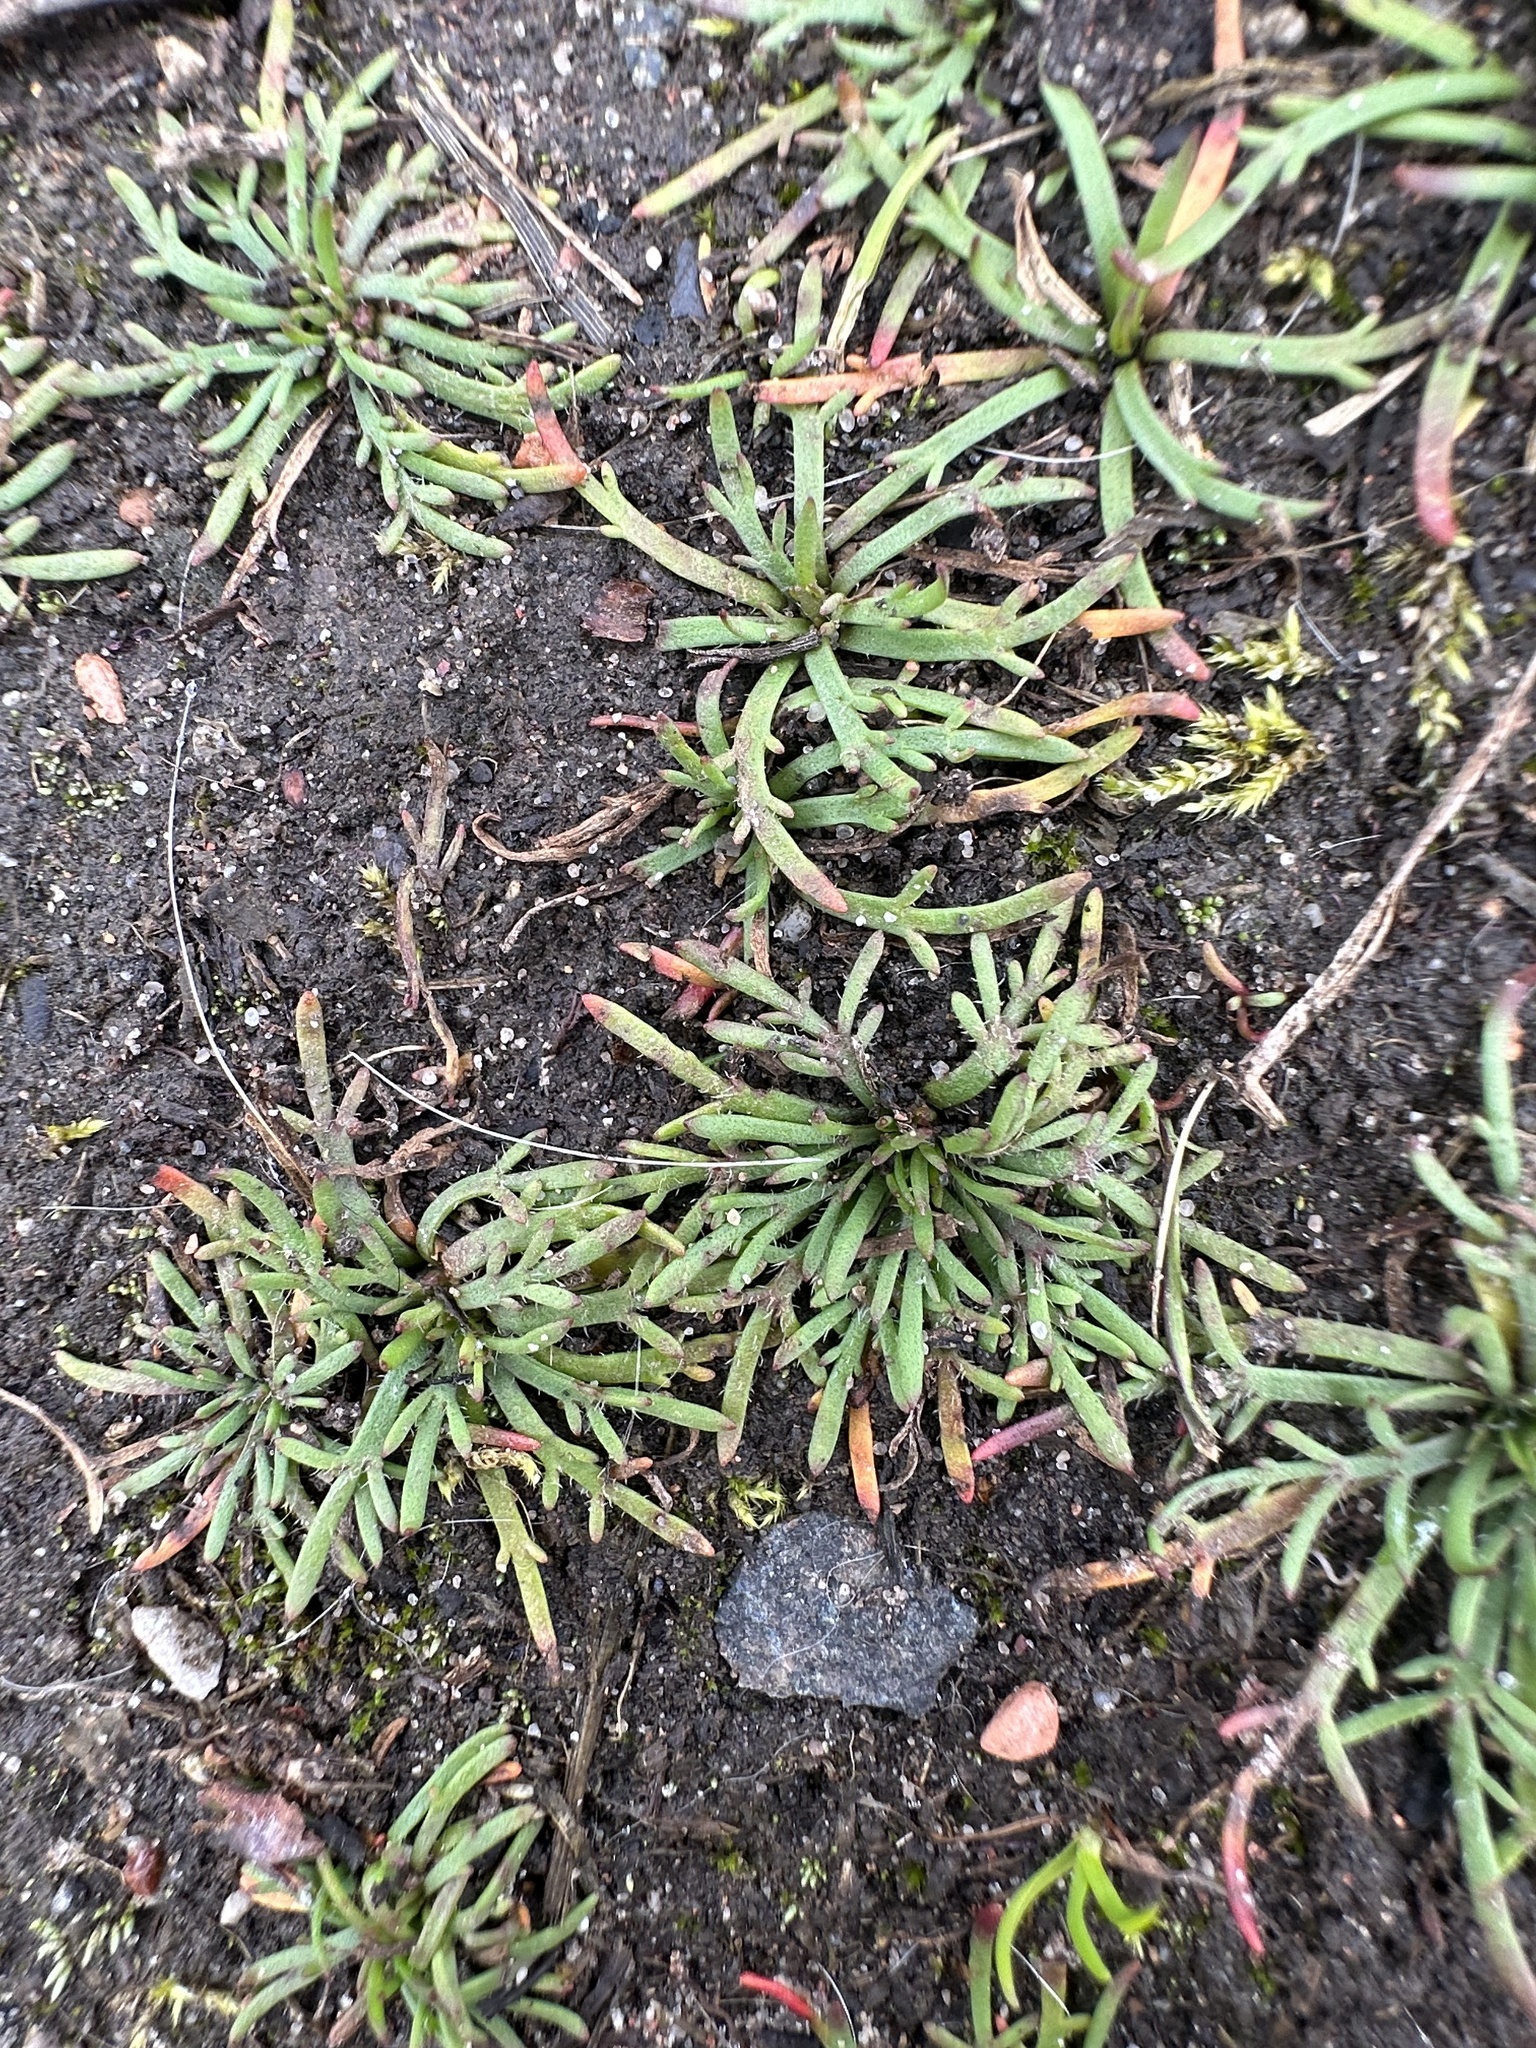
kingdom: Plantae
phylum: Tracheophyta
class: Magnoliopsida
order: Lamiales
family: Plantaginaceae
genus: Plantago
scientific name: Plantago coronopus
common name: Buck's-horn plantain
